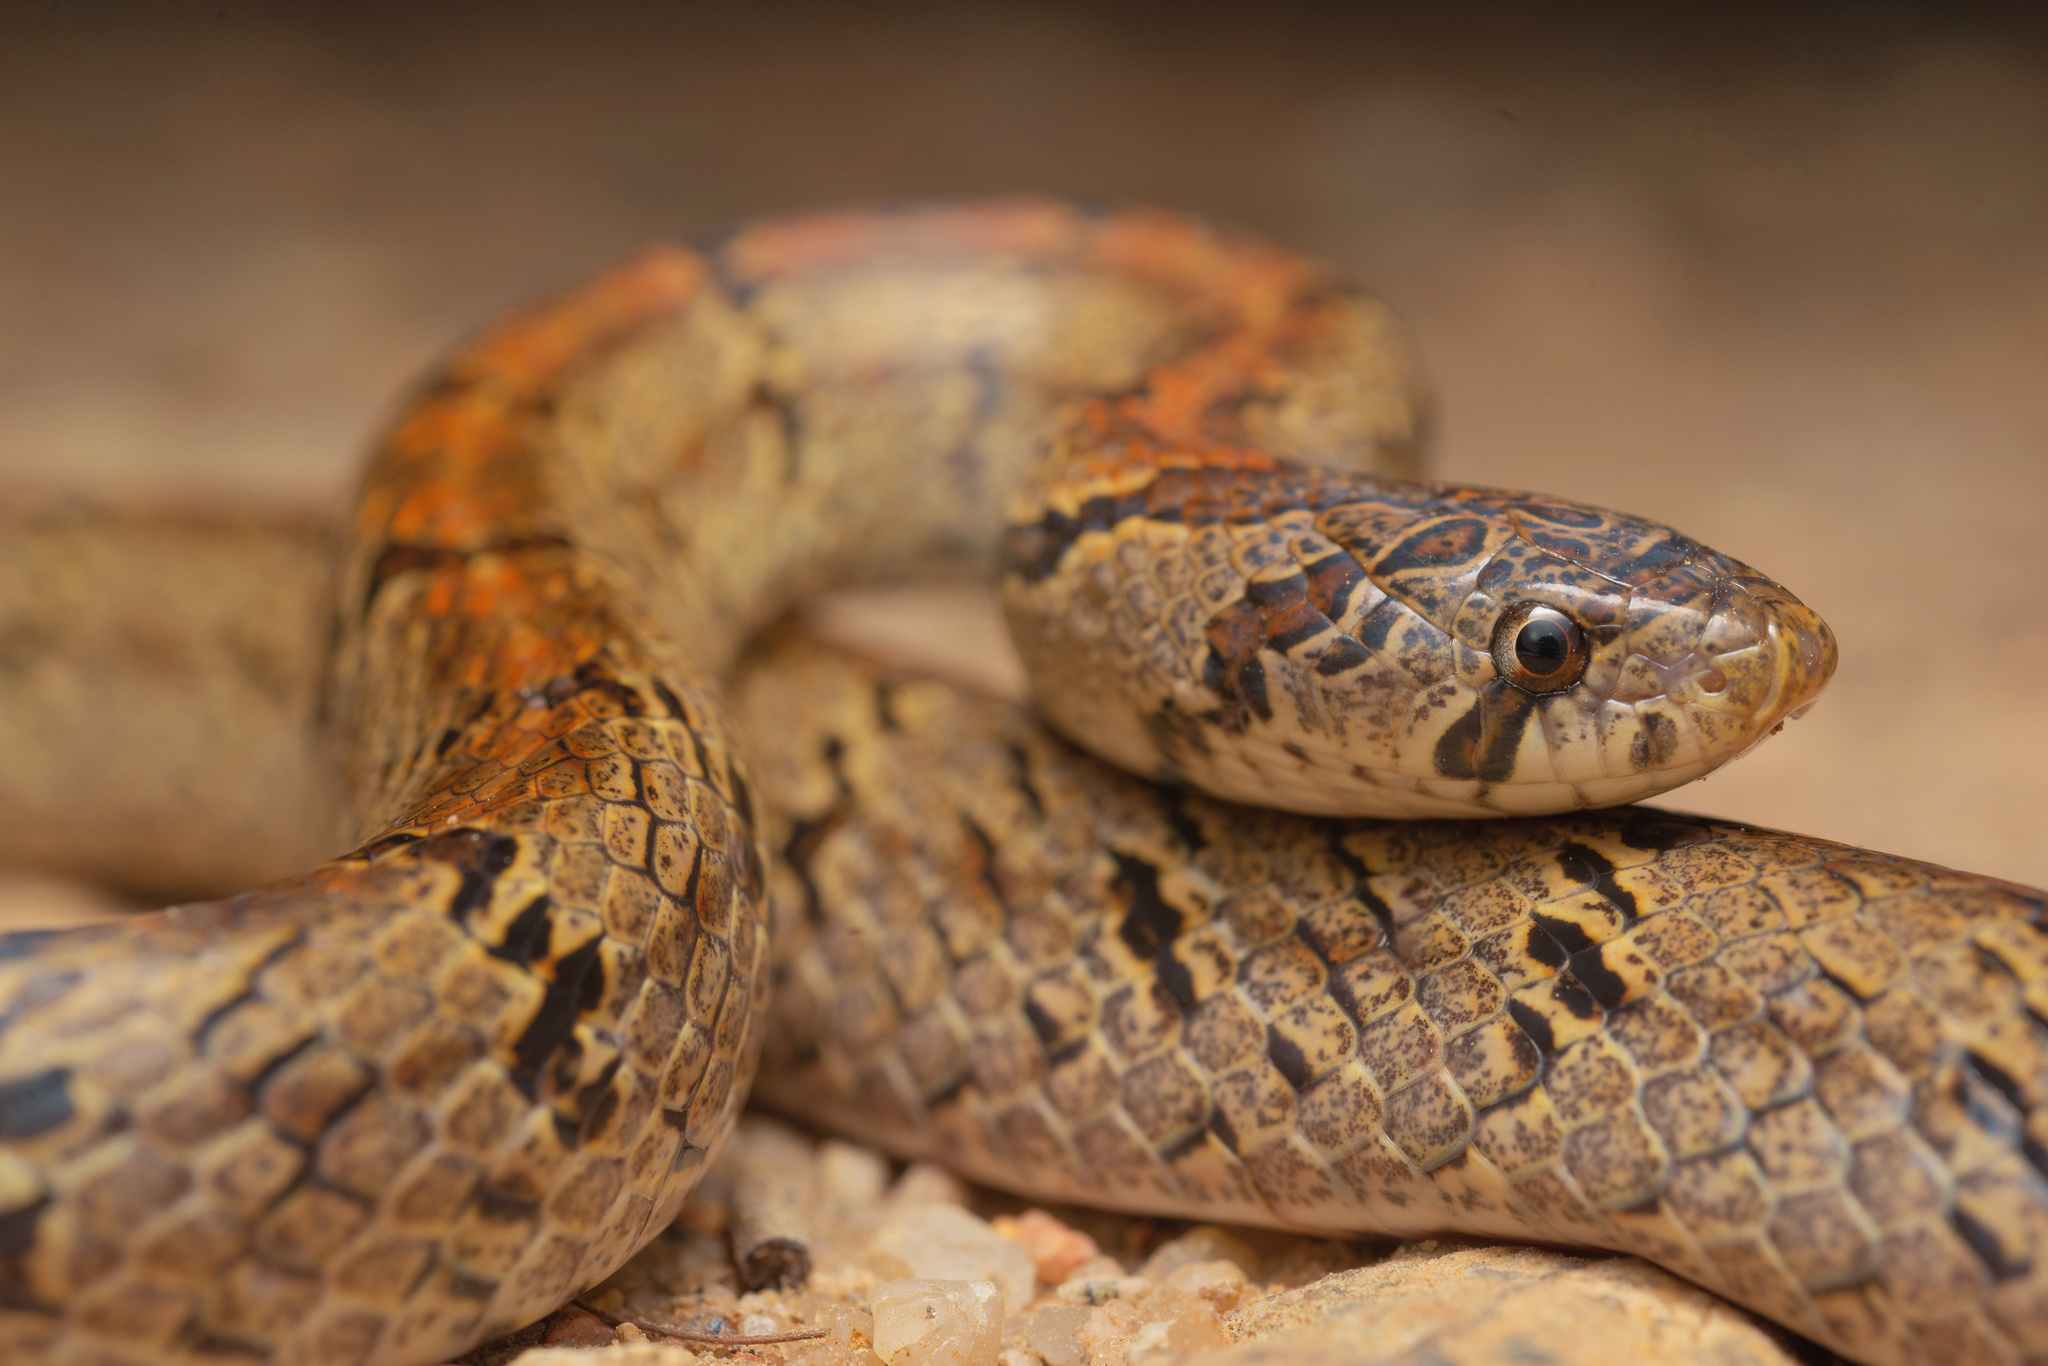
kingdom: Animalia
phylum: Chordata
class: Squamata
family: Colubridae
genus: Oligodon
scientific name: Oligodon formosanus
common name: Formosa kukri snake
